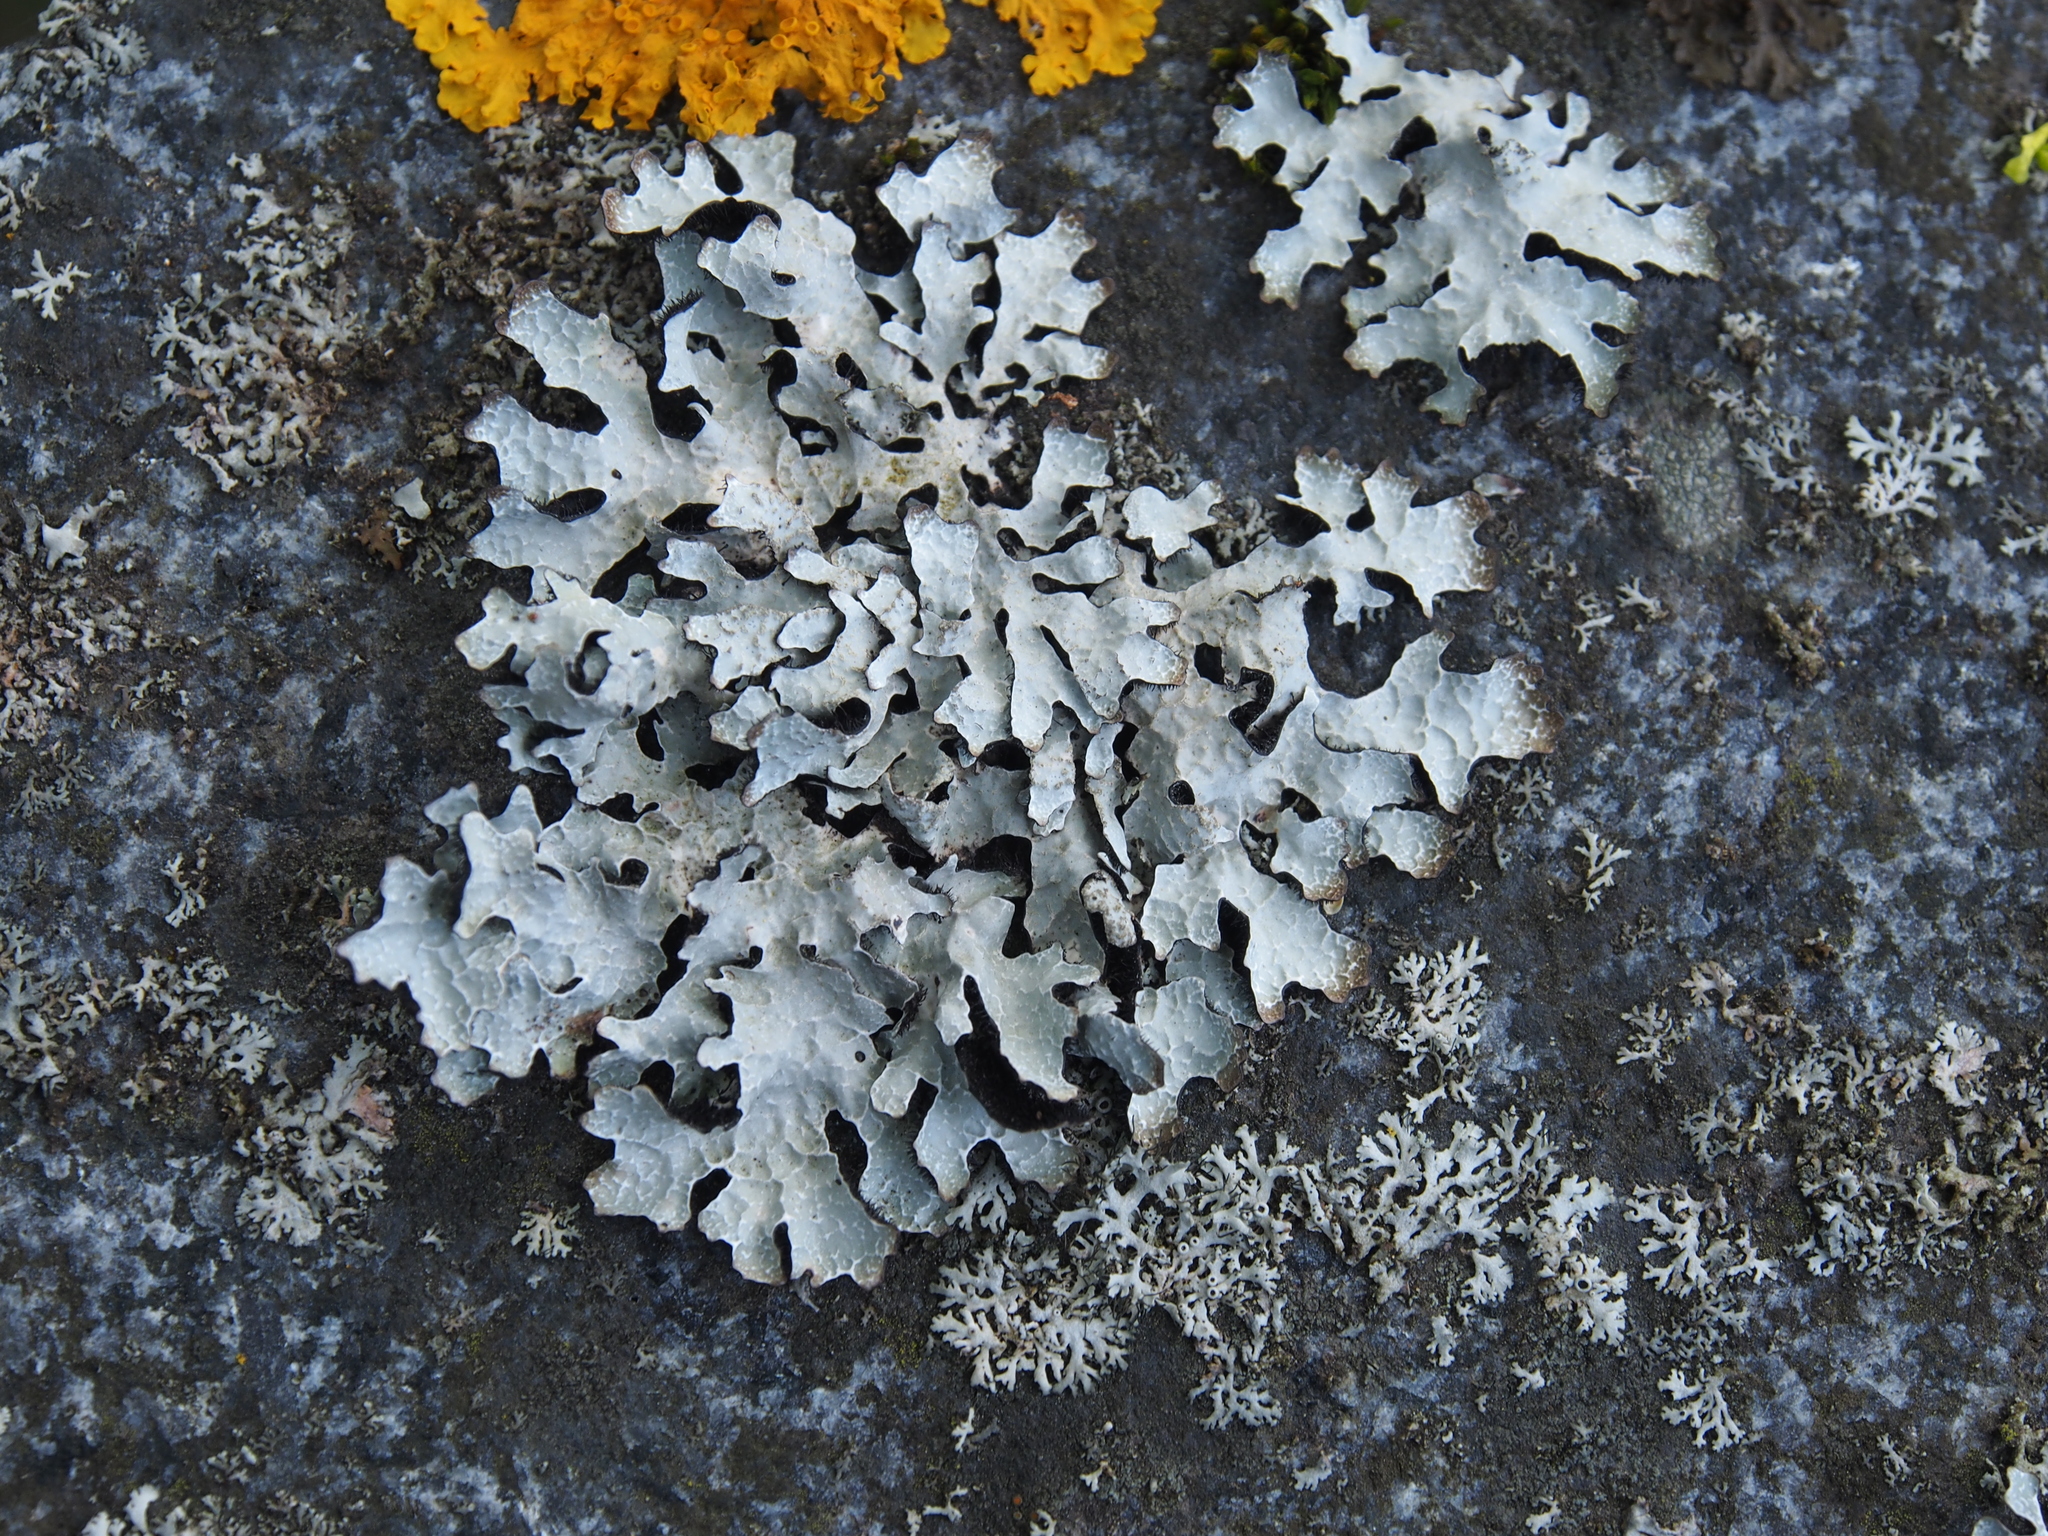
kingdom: Fungi
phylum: Ascomycota
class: Lecanoromycetes
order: Lecanorales
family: Parmeliaceae
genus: Parmelia
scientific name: Parmelia sulcata
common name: Netted shield lichen
